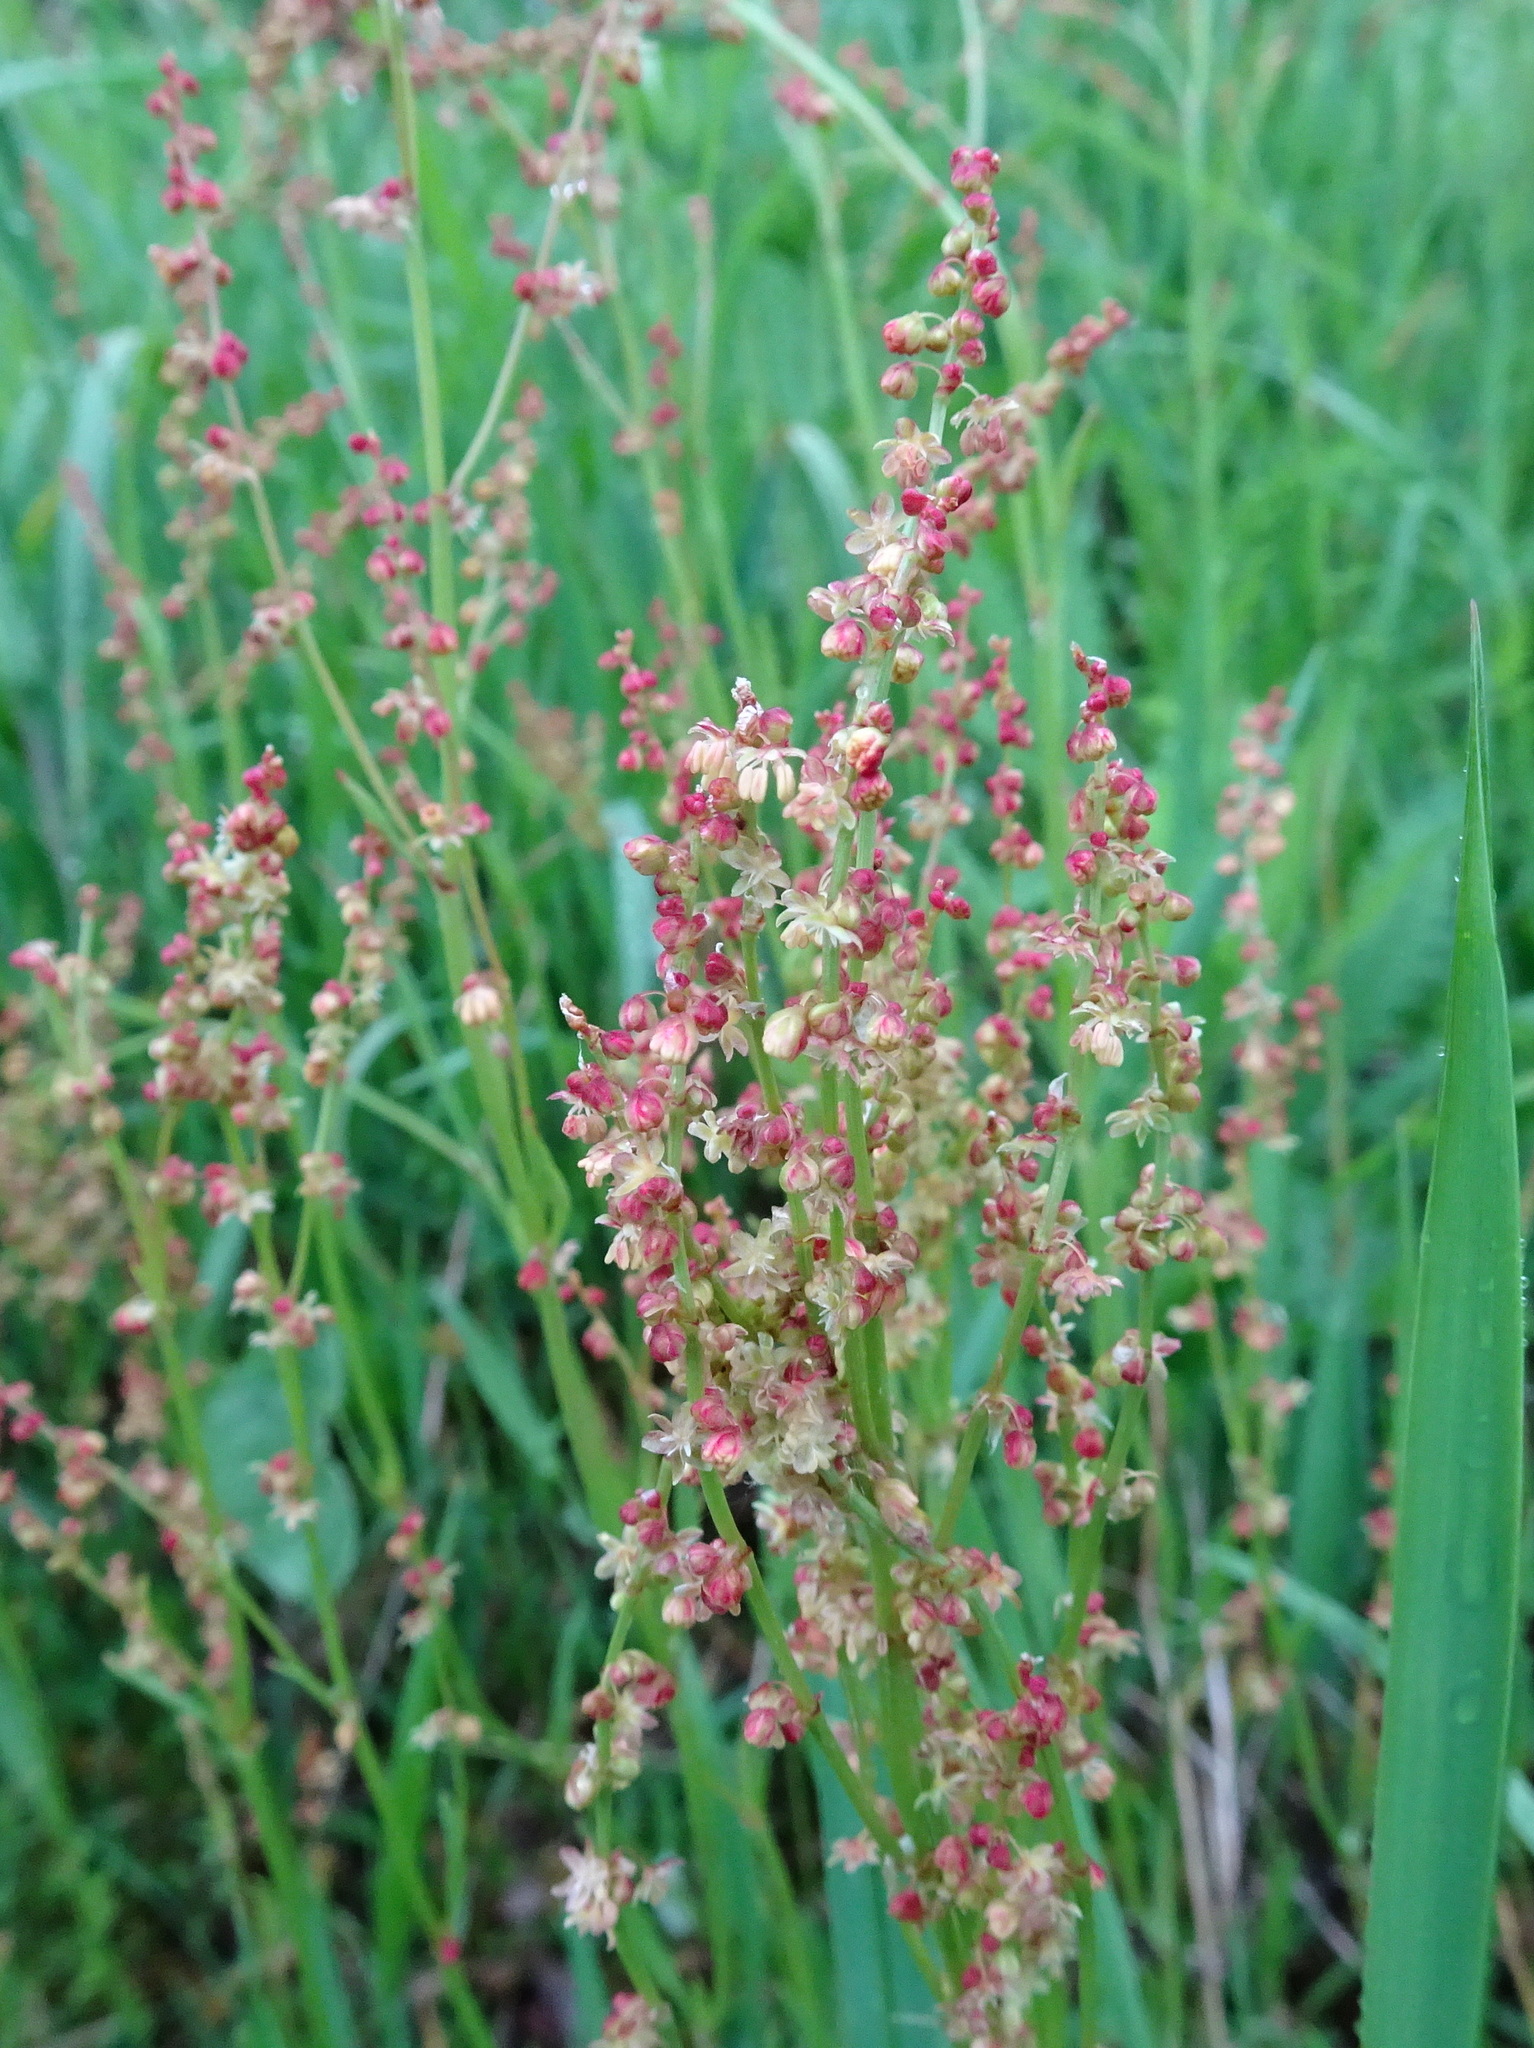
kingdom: Plantae
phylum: Tracheophyta
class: Magnoliopsida
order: Caryophyllales
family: Polygonaceae
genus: Rumex
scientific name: Rumex acetosella
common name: Common sheep sorrel
